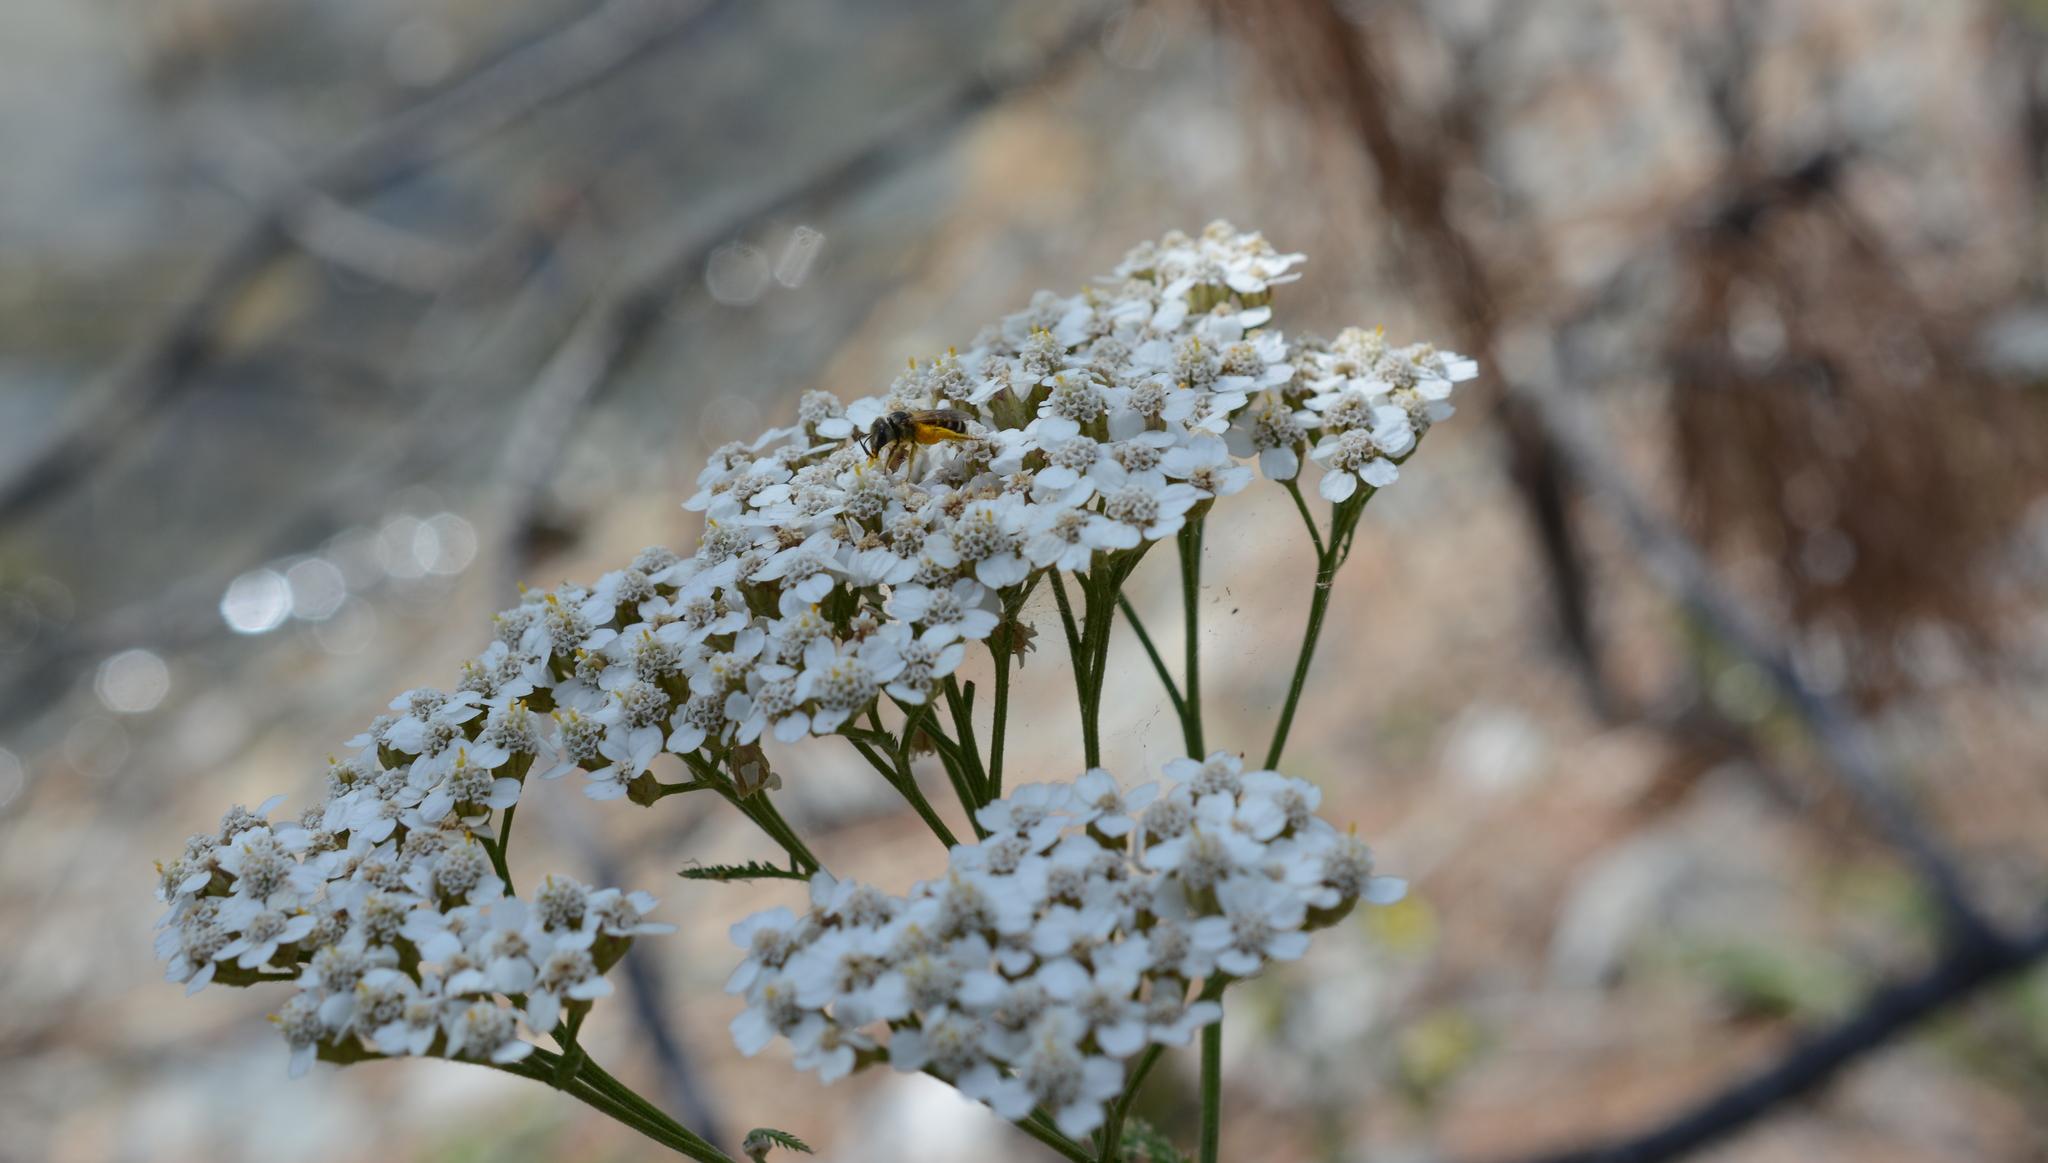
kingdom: Plantae
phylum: Tracheophyta
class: Magnoliopsida
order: Asterales
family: Asteraceae
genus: Achillea
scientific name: Achillea millefolium
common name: Yarrow
